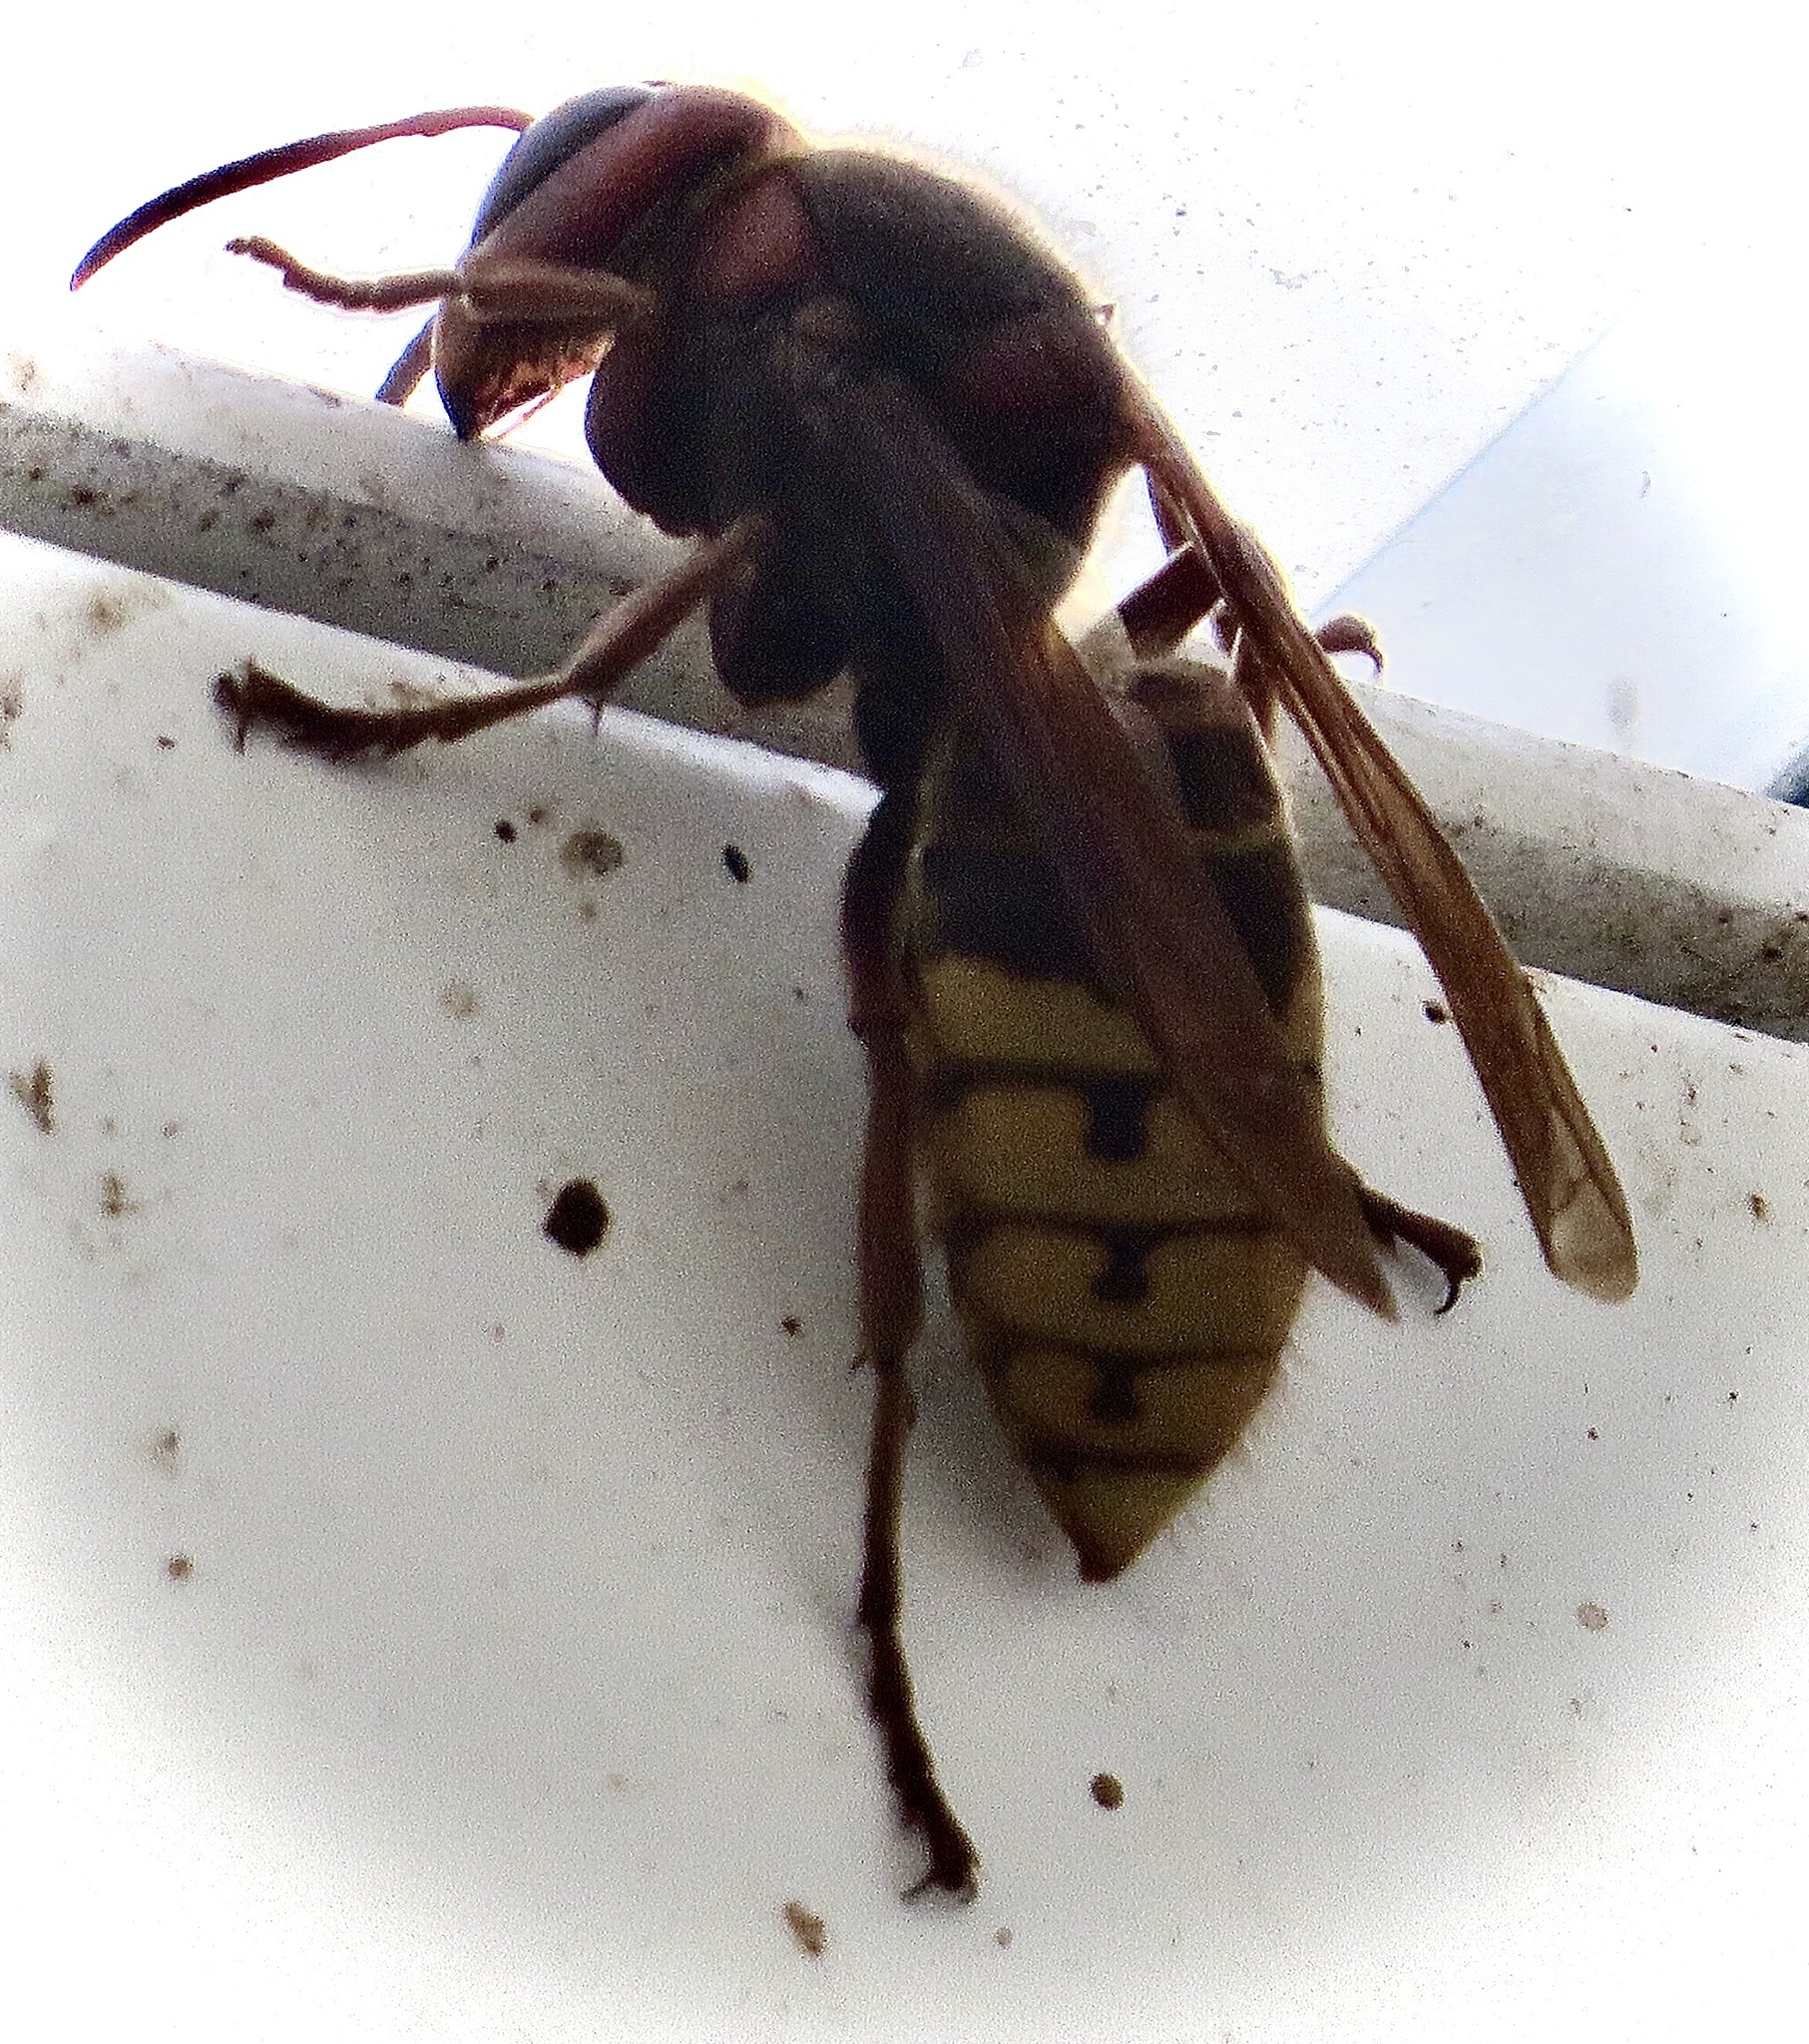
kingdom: Animalia
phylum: Arthropoda
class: Insecta
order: Hymenoptera
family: Vespidae
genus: Vespa
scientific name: Vespa crabro
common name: Hornet
